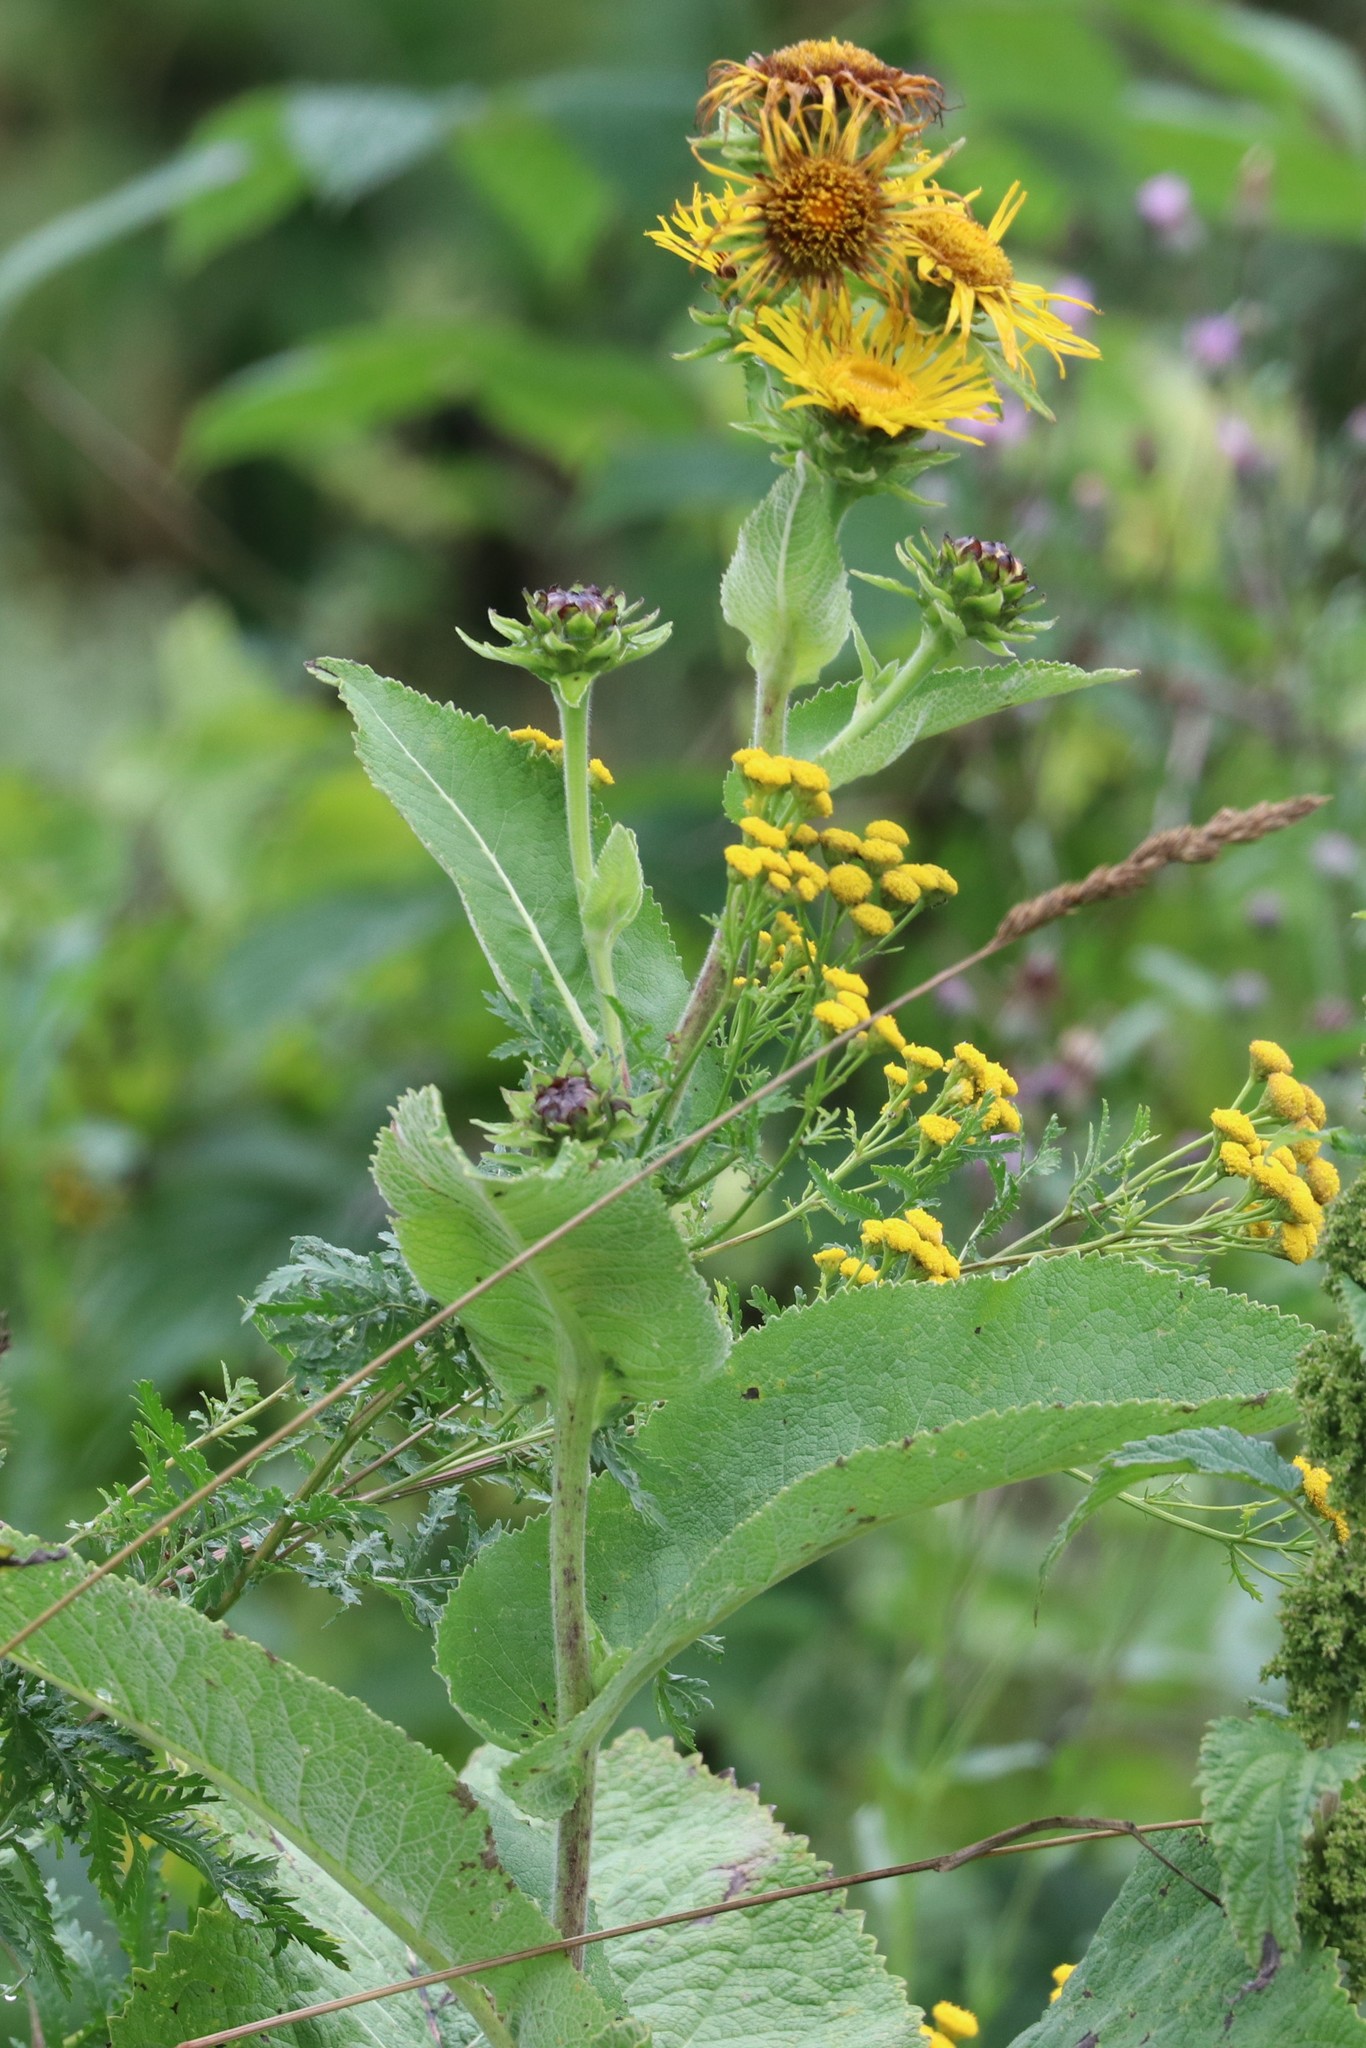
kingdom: Plantae
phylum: Tracheophyta
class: Magnoliopsida
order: Asterales
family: Asteraceae
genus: Inula
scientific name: Inula helenium
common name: Elecampane
